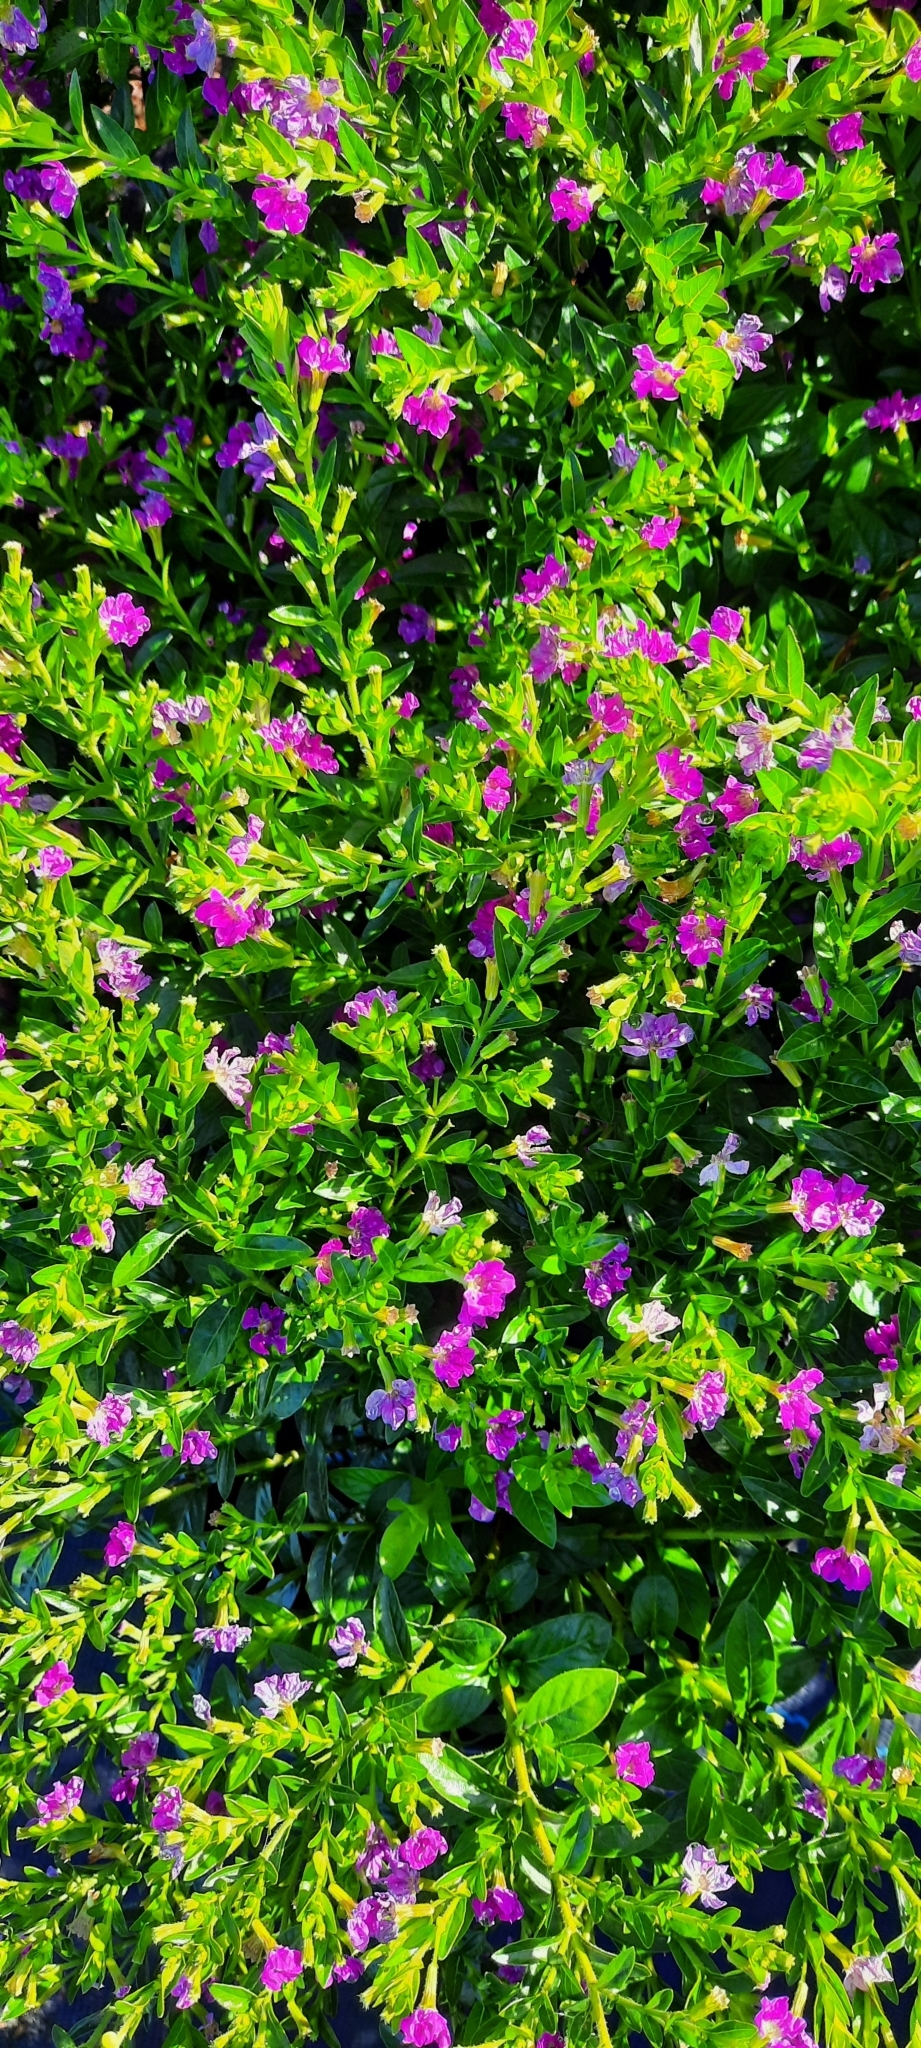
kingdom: Plantae
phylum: Tracheophyta
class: Magnoliopsida
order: Myrtales
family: Lythraceae
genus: Cuphea
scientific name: Cuphea hyssopifolia
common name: False heather
